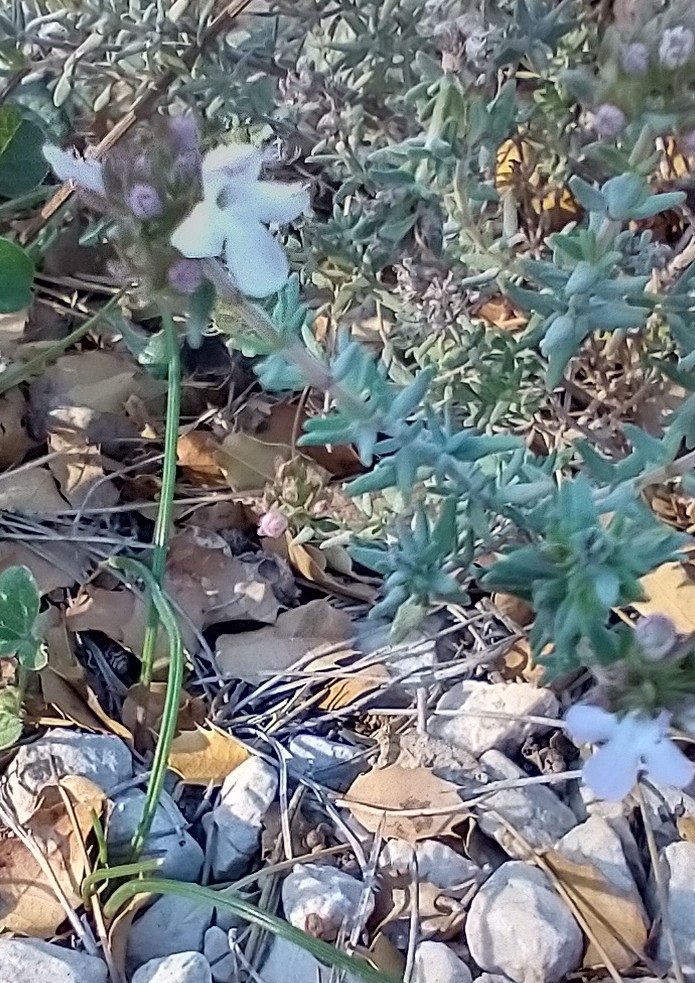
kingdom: Plantae
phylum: Tracheophyta
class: Magnoliopsida
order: Lamiales
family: Lamiaceae
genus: Thymus
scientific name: Thymus vulgaris
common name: Garden thyme
